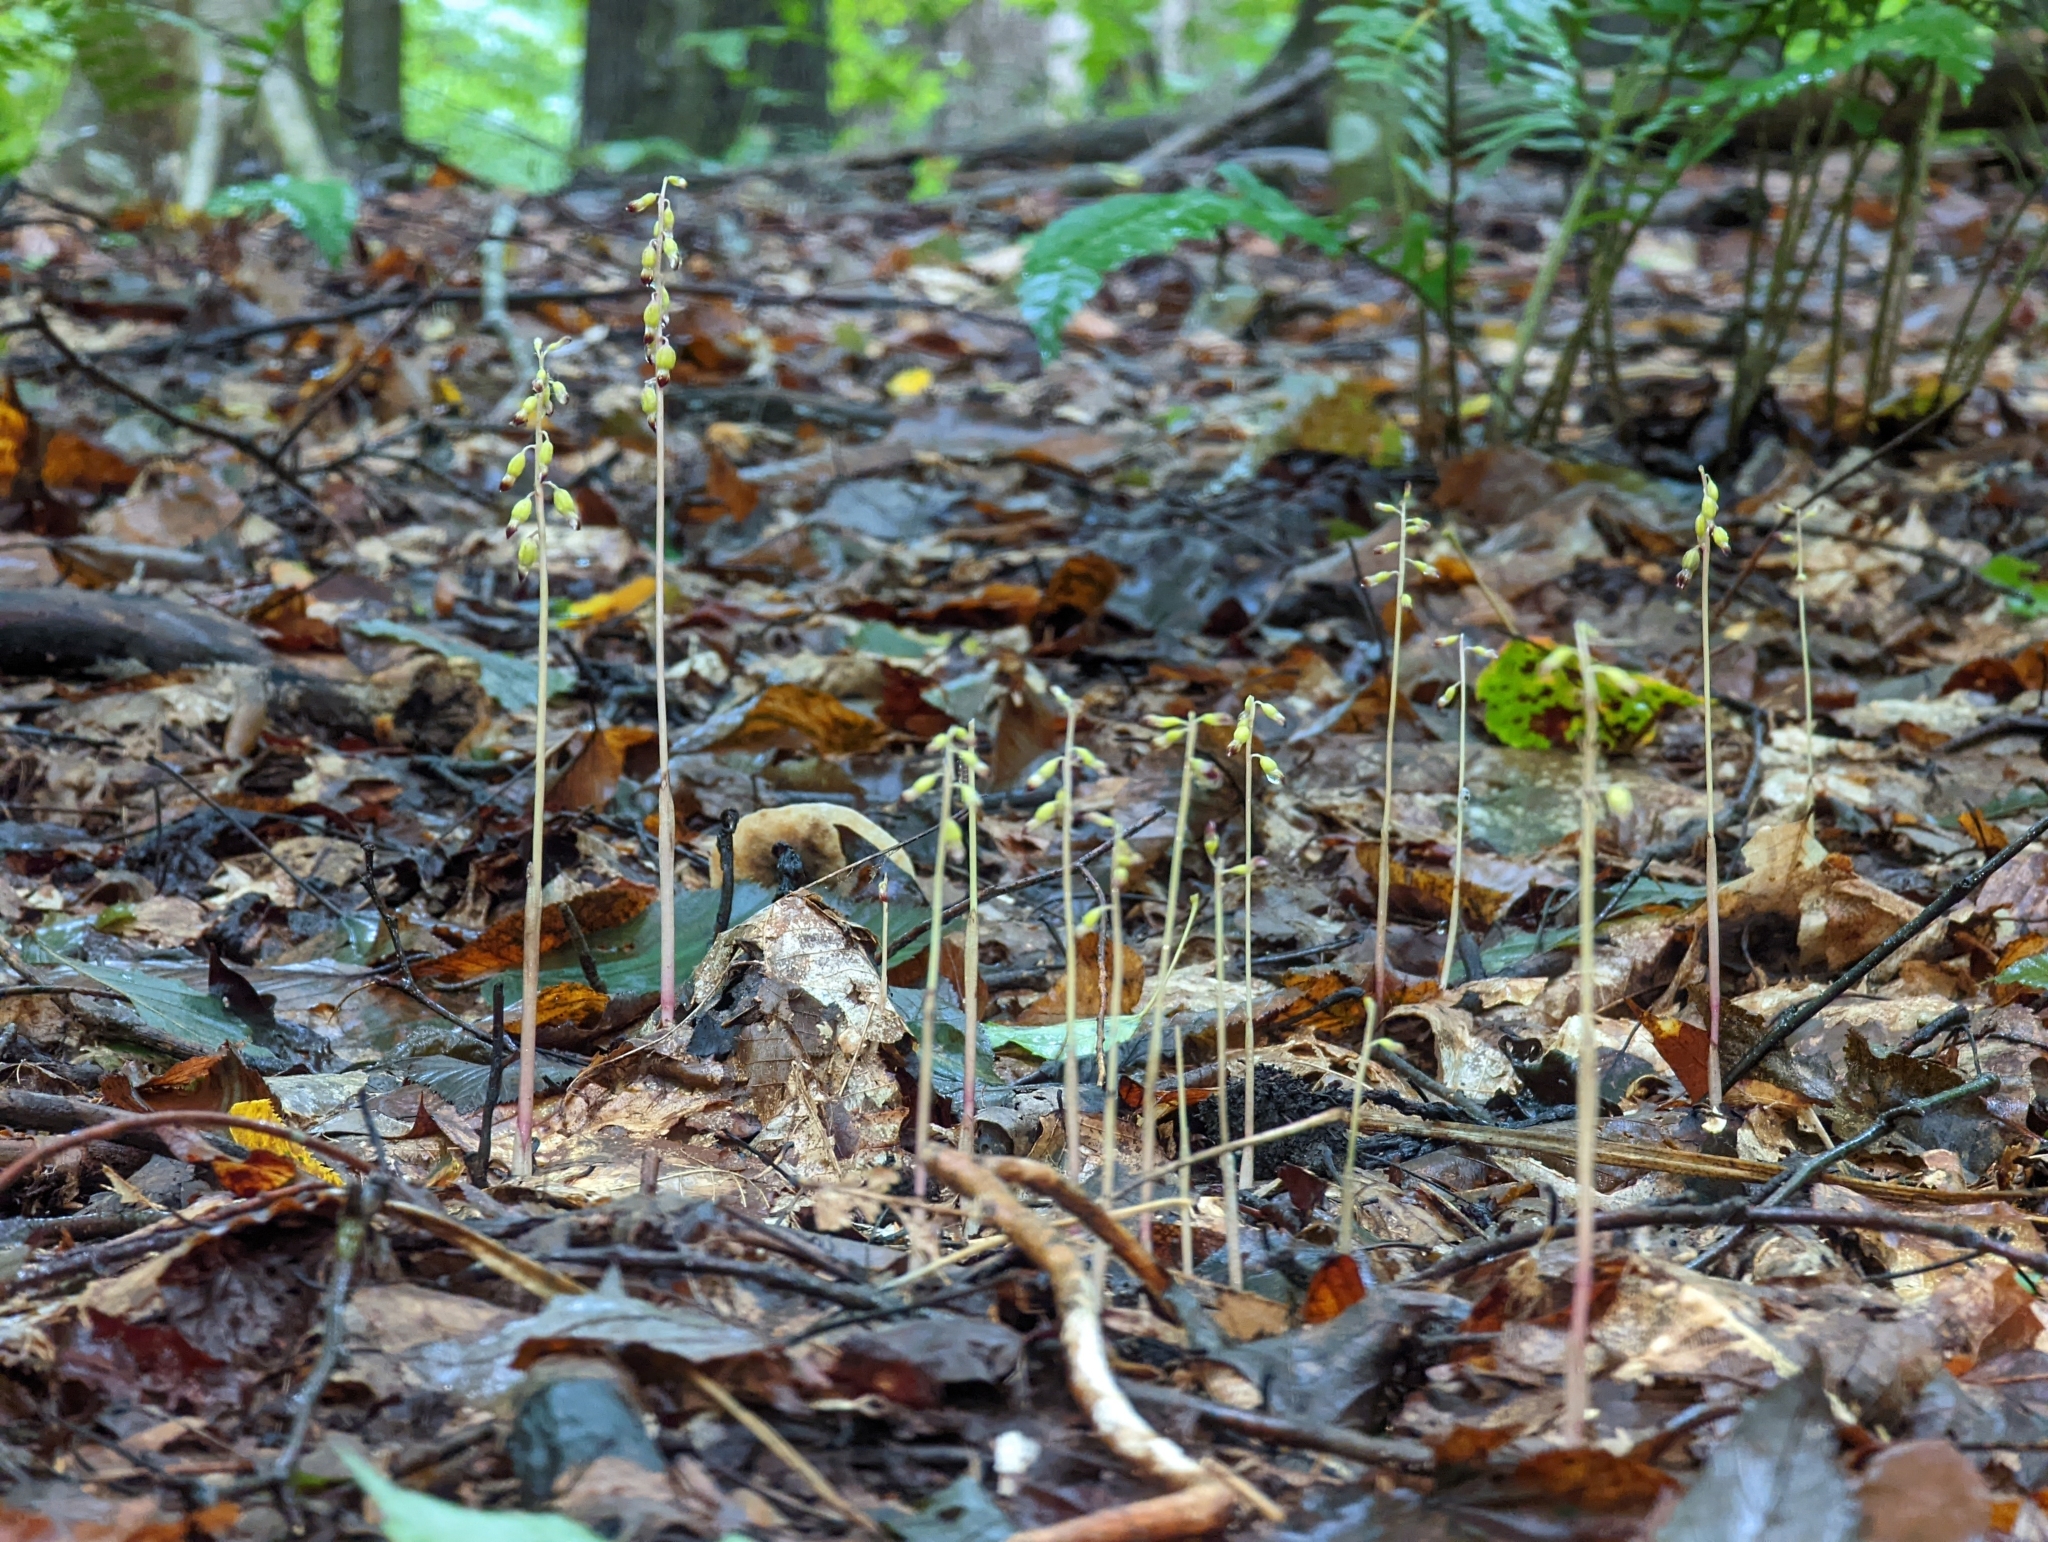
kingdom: Plantae
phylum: Tracheophyta
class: Liliopsida
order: Asparagales
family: Orchidaceae
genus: Corallorhiza
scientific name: Corallorhiza odontorhiza
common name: Autumn coralroot
